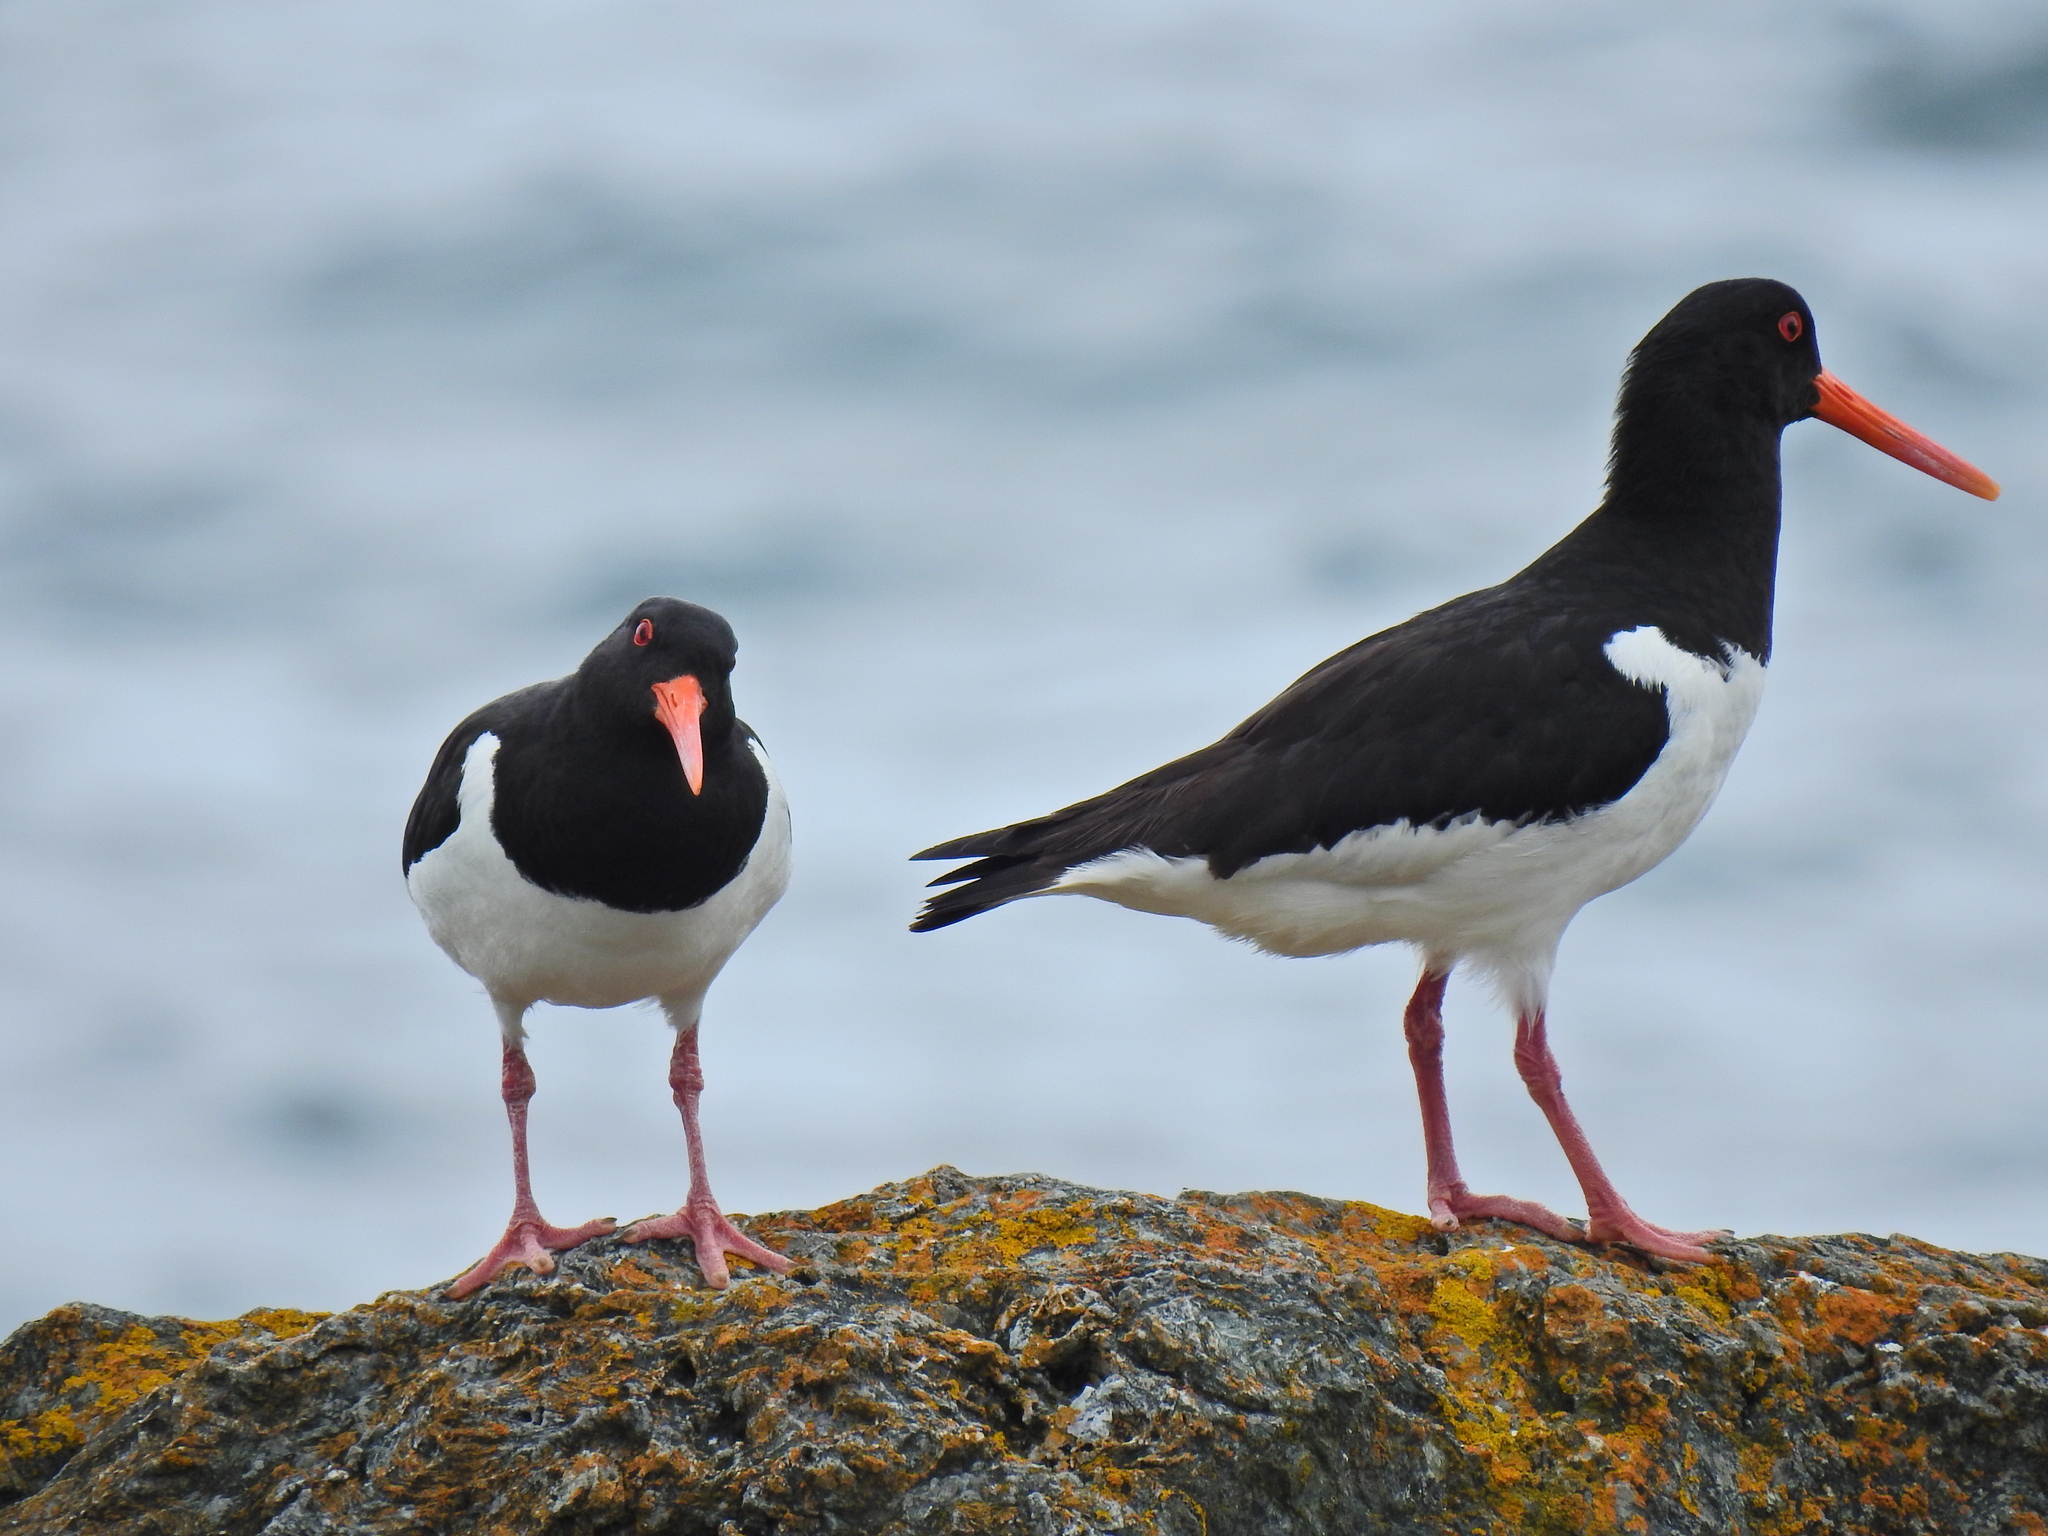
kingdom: Animalia
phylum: Chordata
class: Aves
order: Charadriiformes
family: Haematopodidae
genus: Haematopus
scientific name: Haematopus ostralegus
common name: Eurasian oystercatcher
